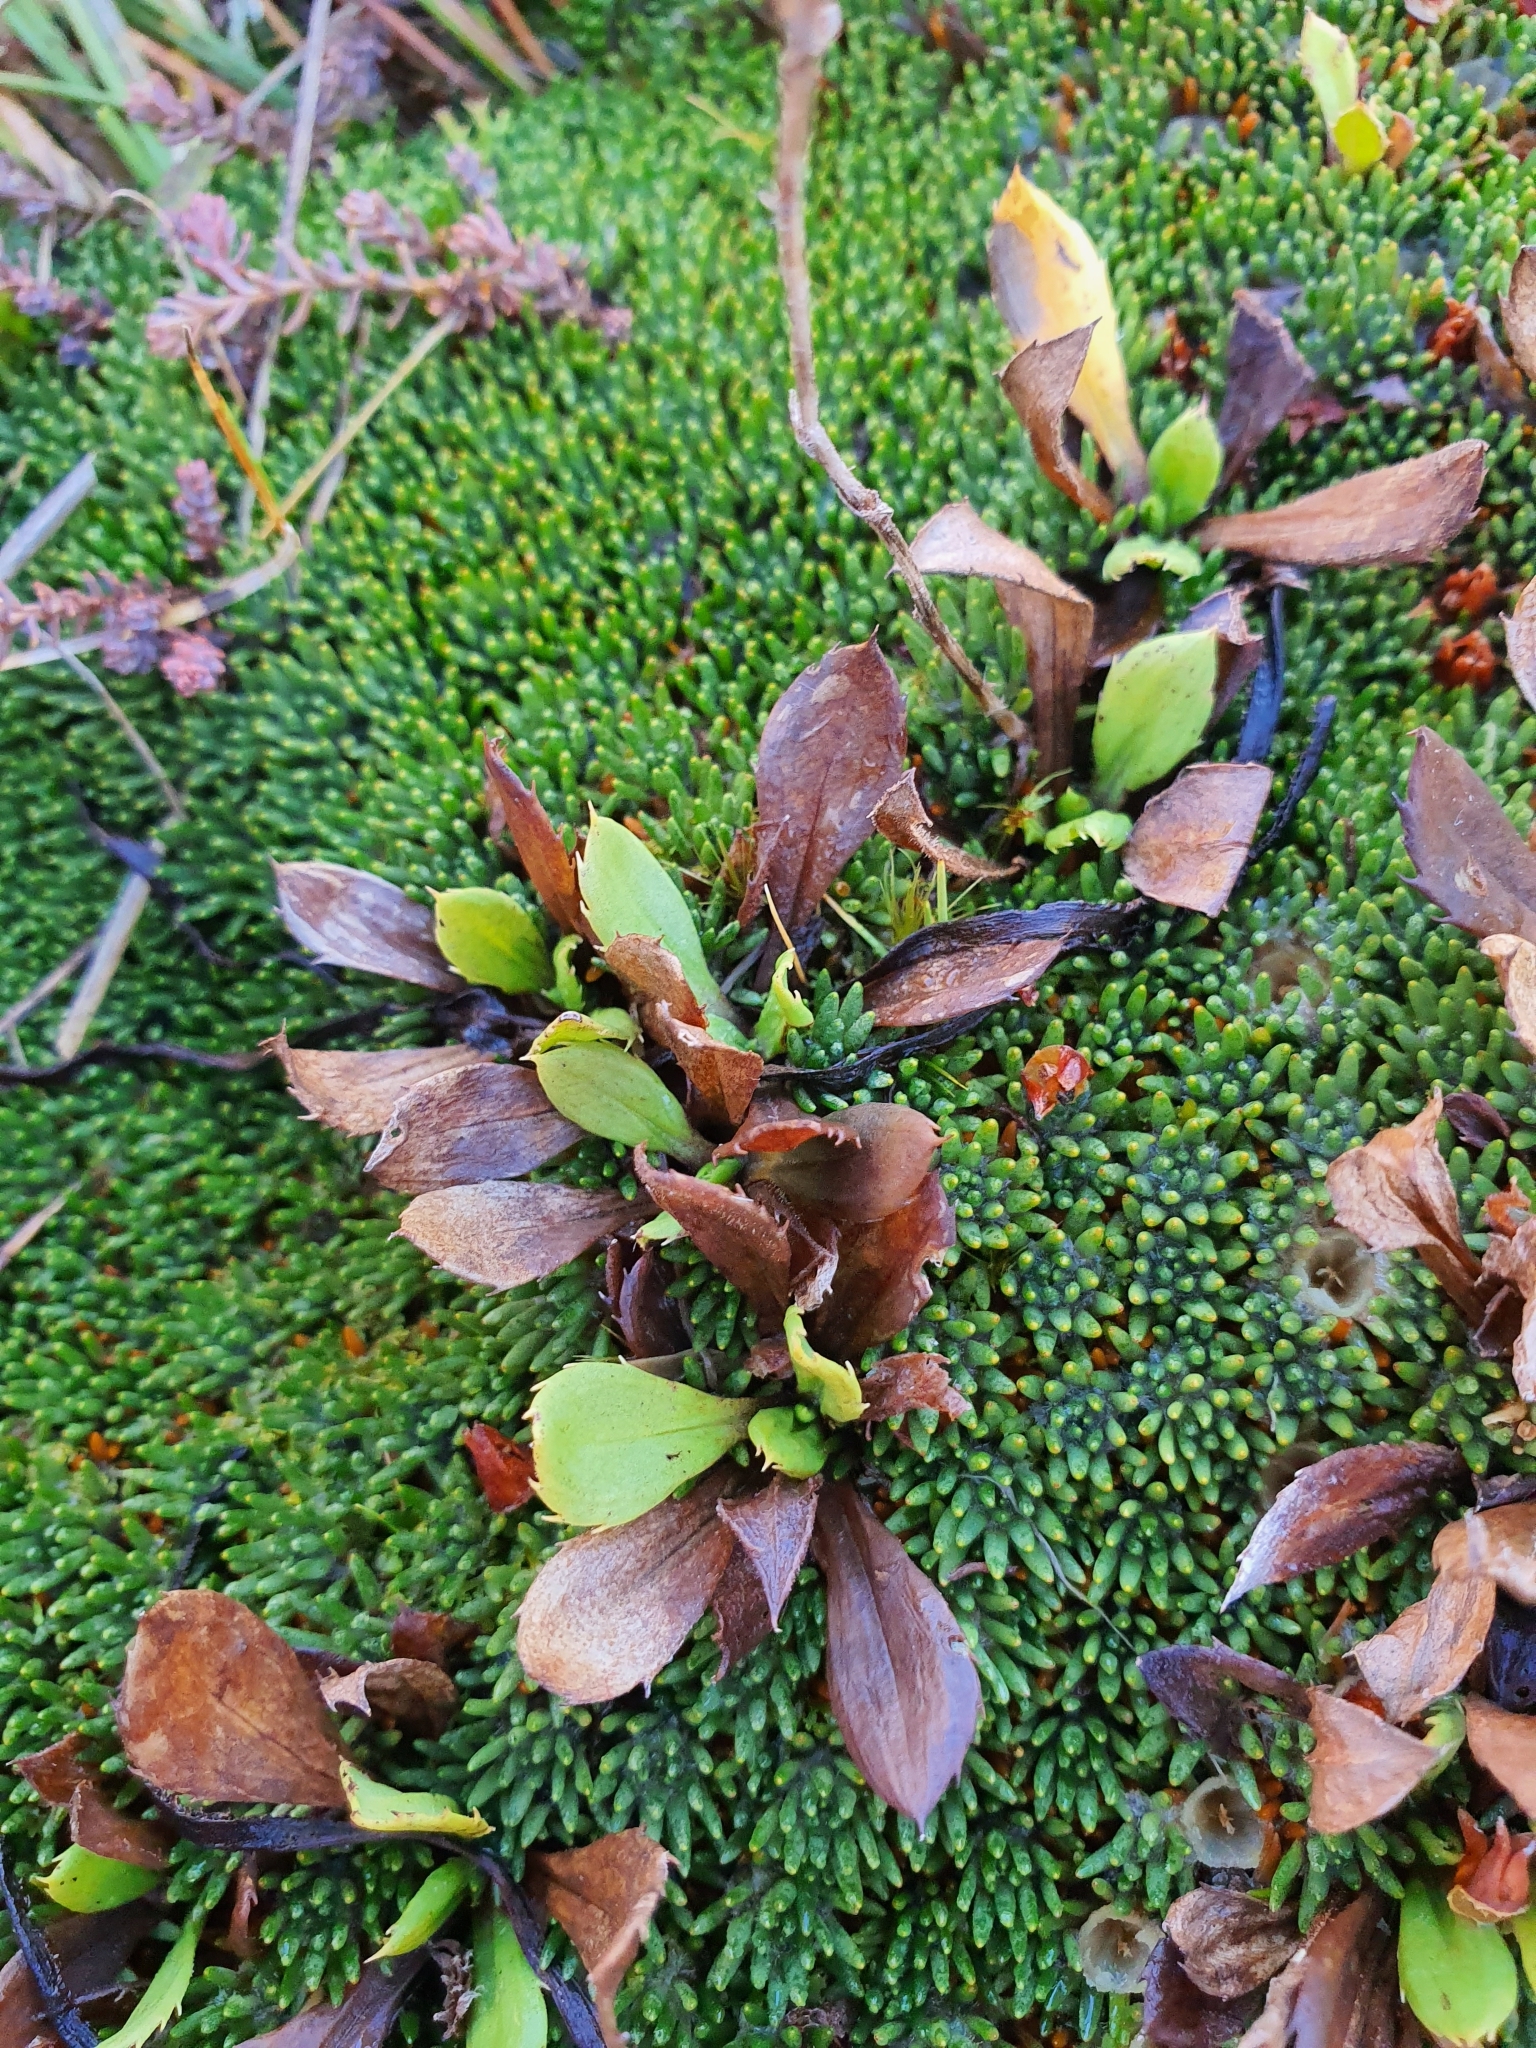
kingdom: Plantae
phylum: Tracheophyta
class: Magnoliopsida
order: Asterales
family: Asteraceae
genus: Celmisia
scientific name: Celmisia glandulosa
